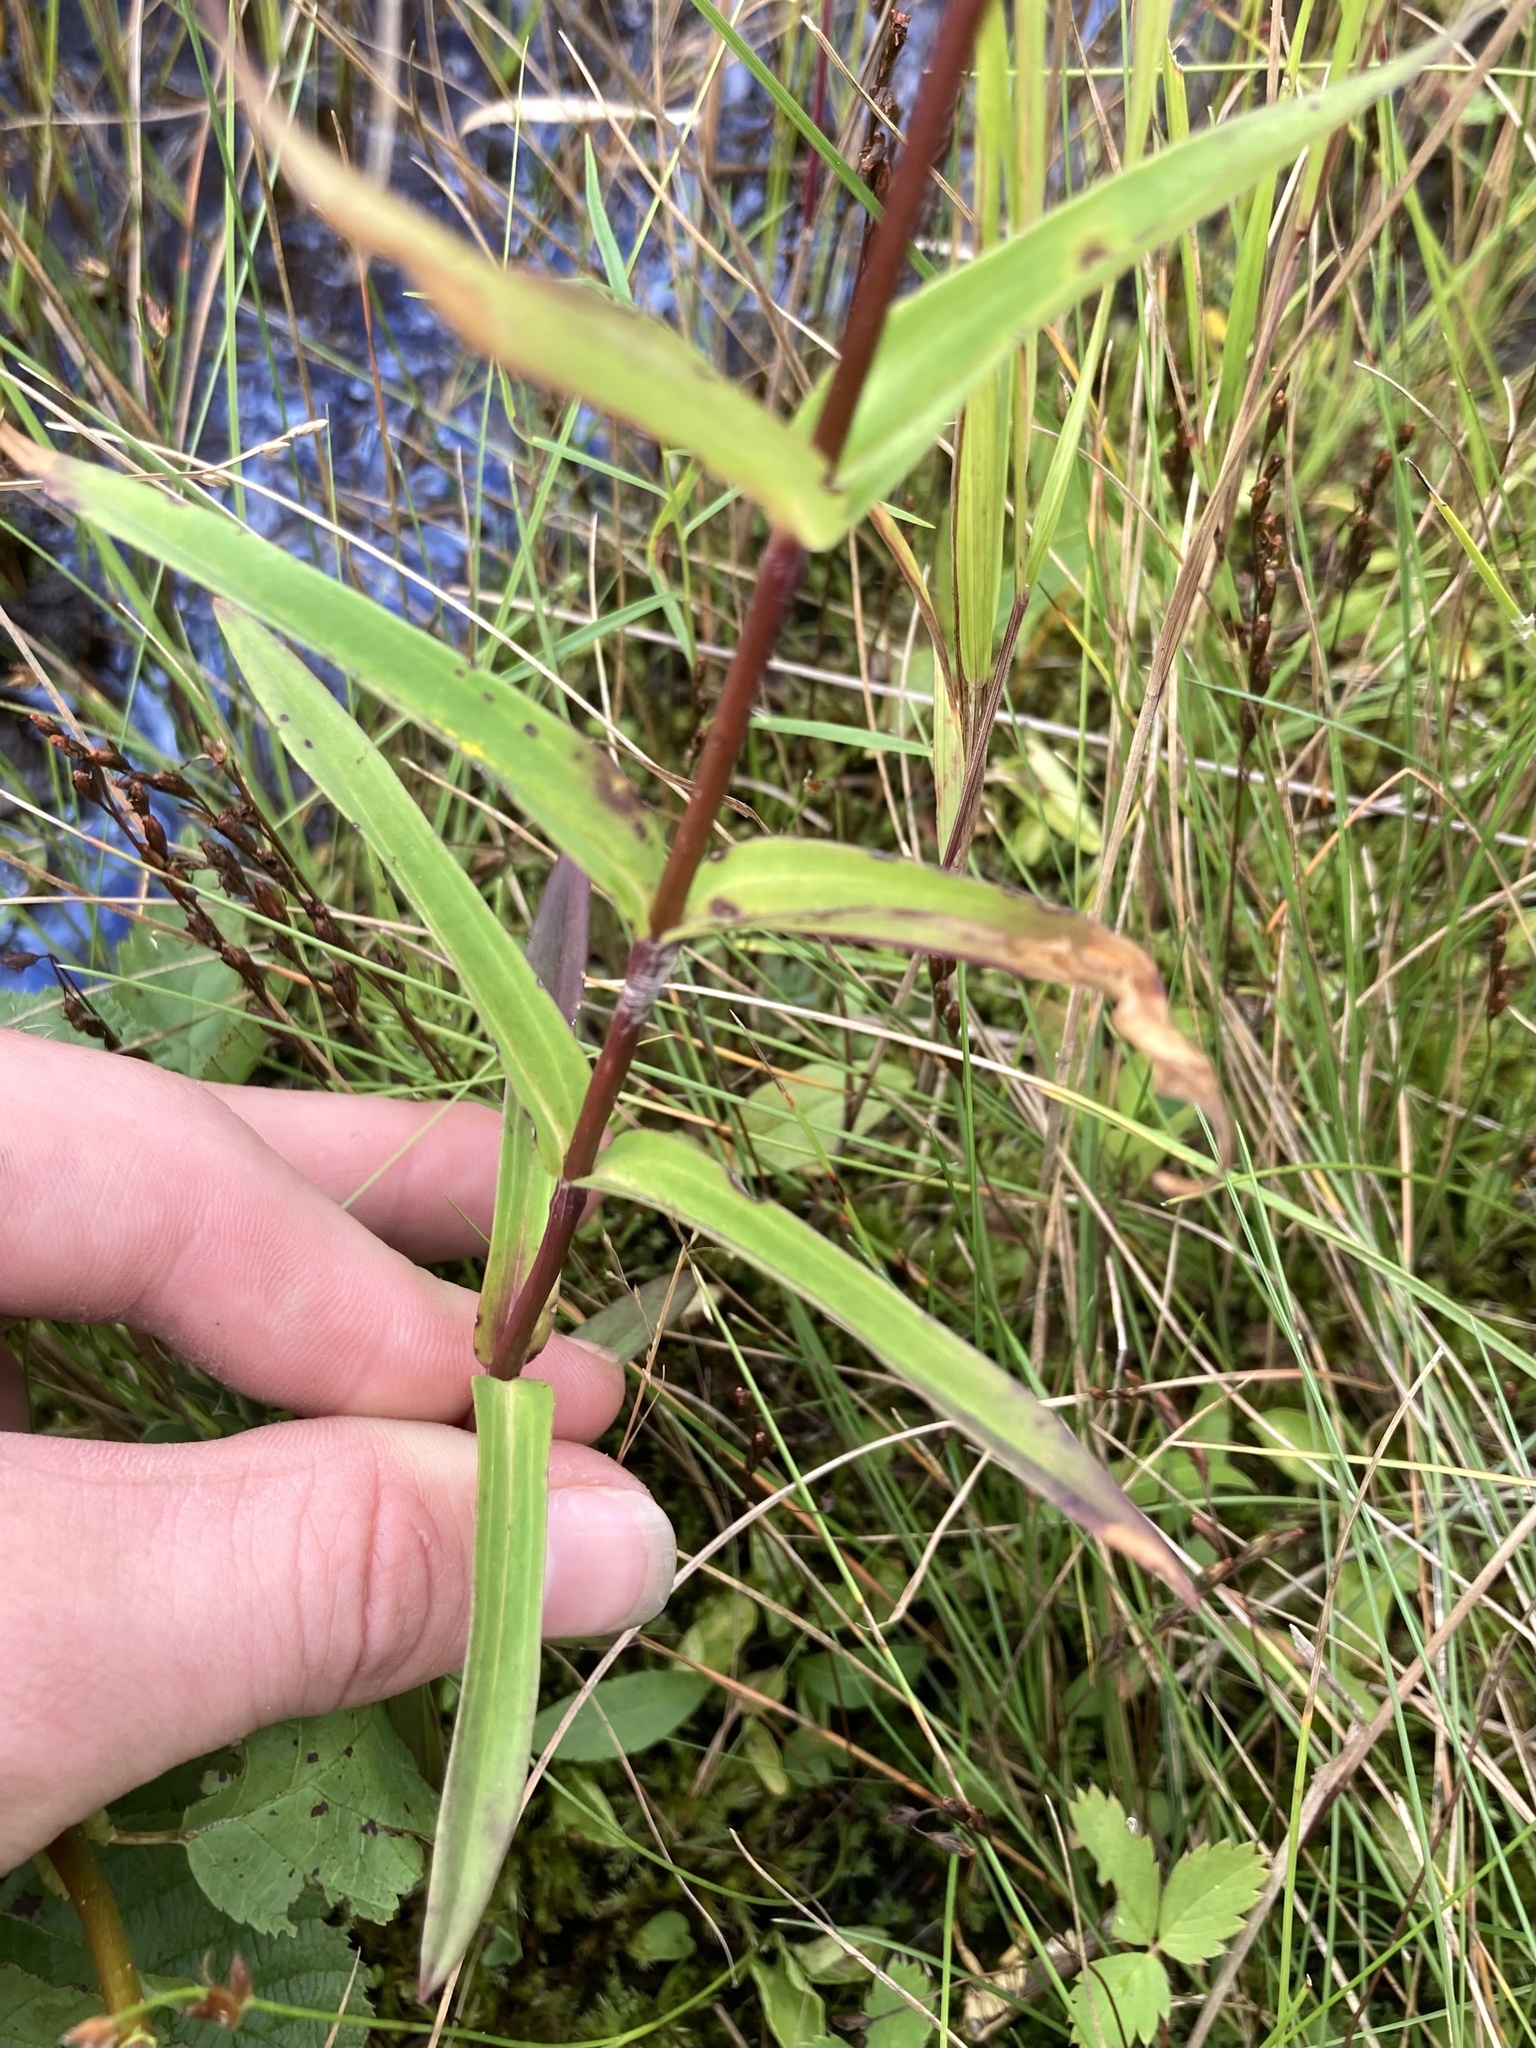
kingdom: Plantae
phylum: Tracheophyta
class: Magnoliopsida
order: Gentianales
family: Gentianaceae
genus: Gentiana
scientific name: Gentiana rubricaulis
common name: Purple-stemmed gentian
